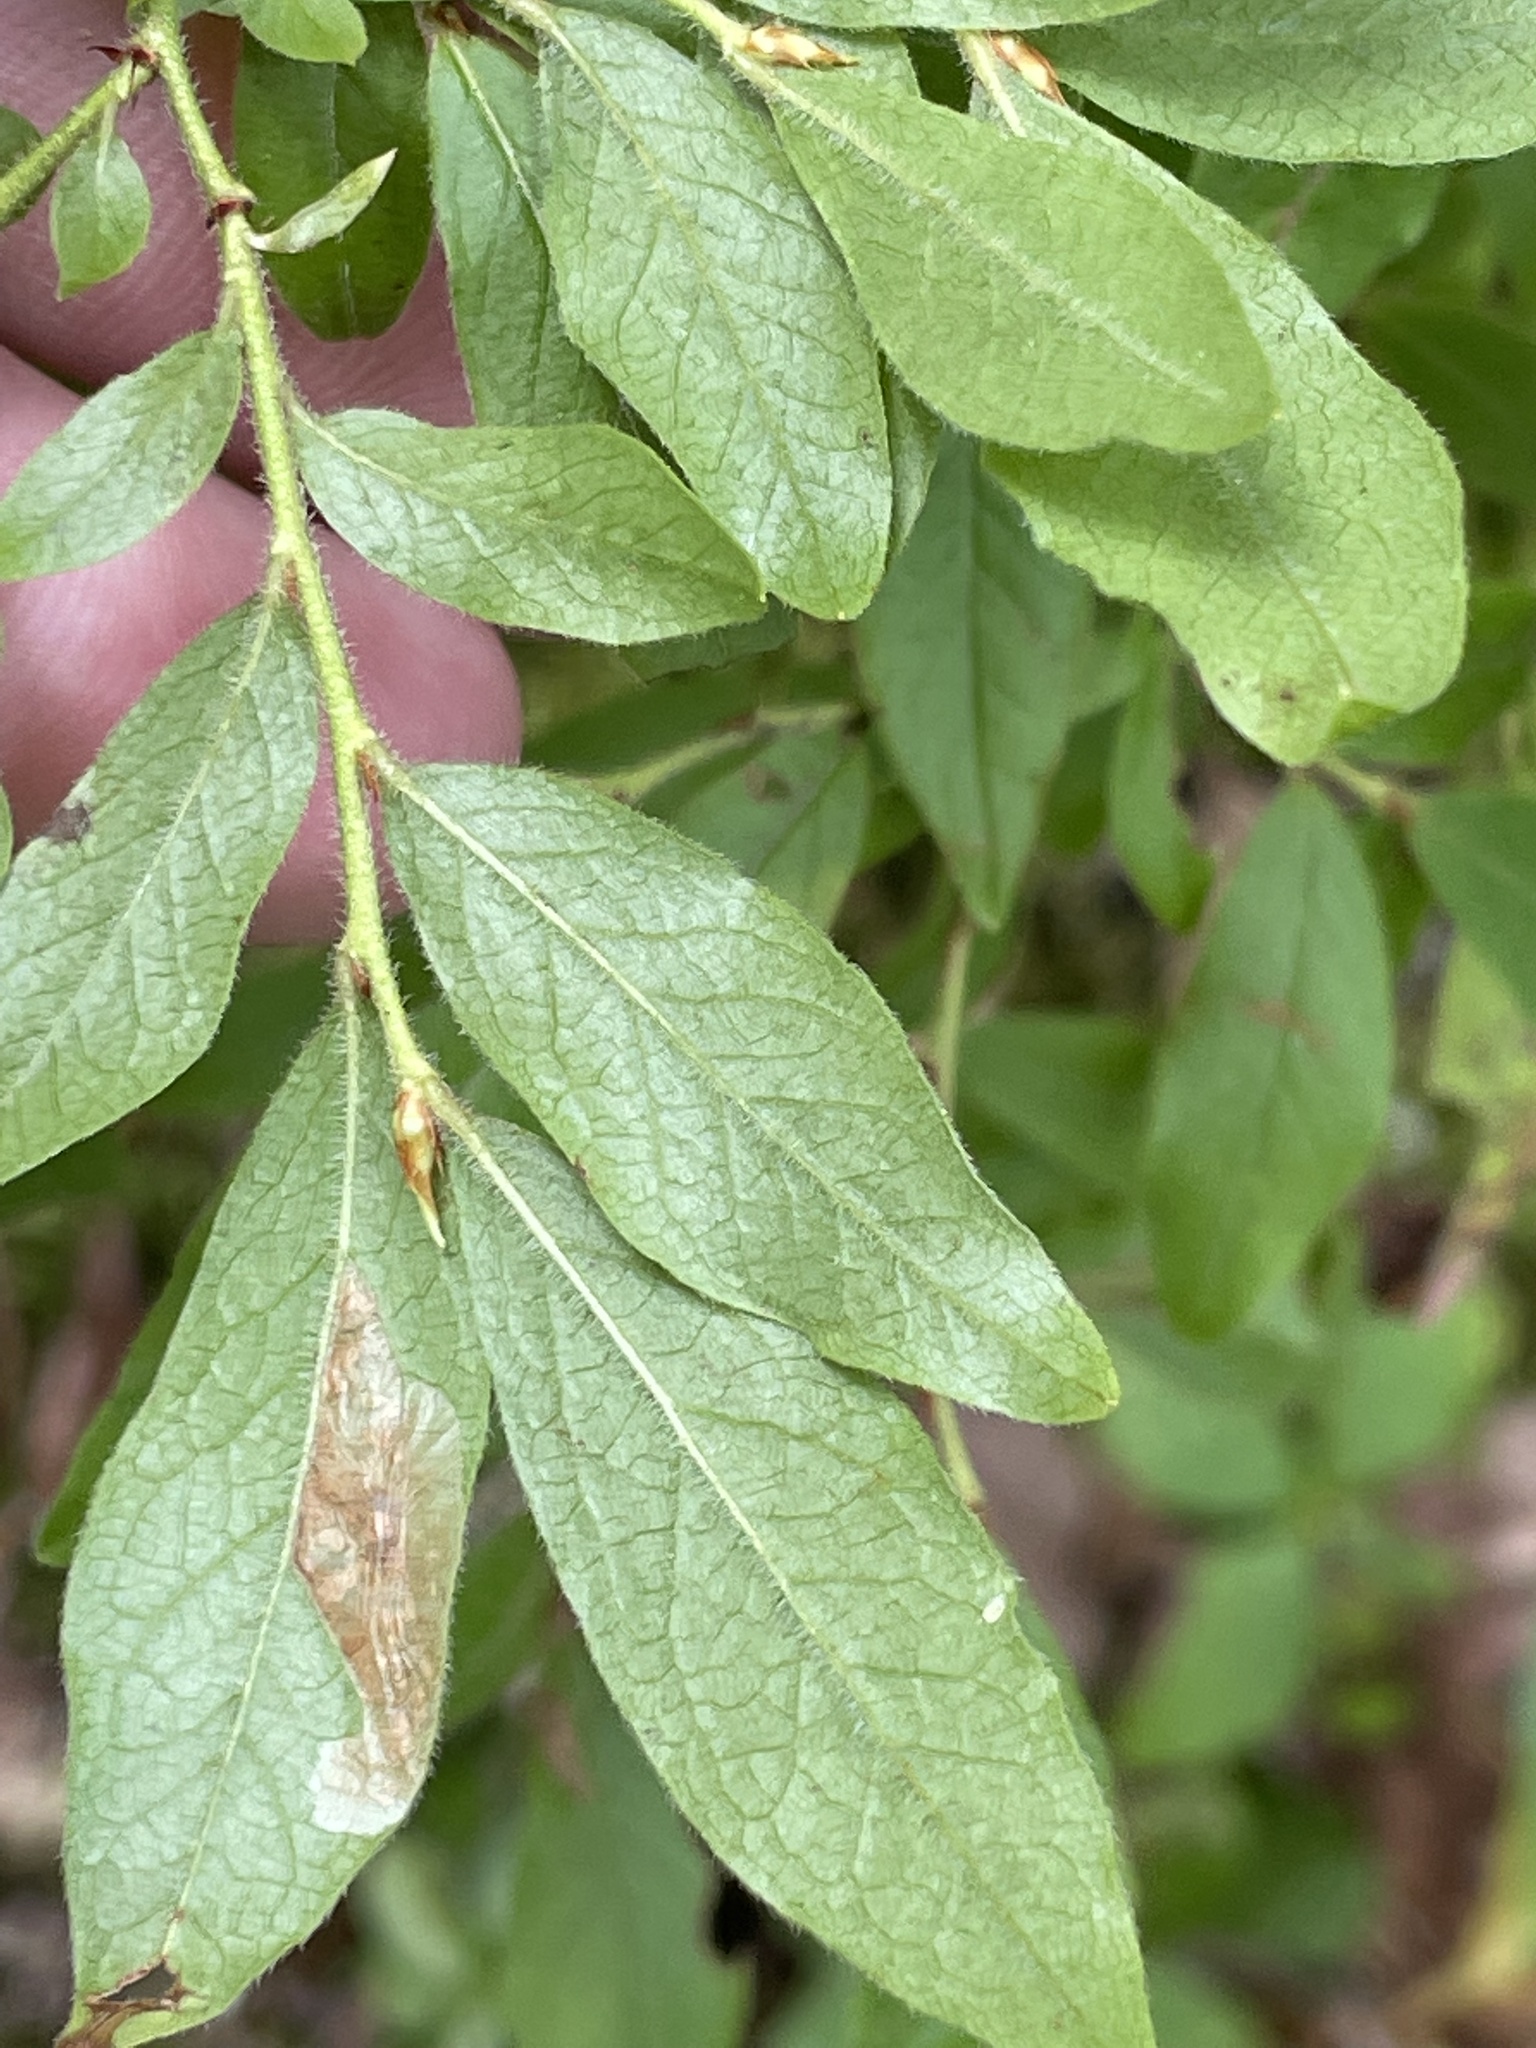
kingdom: Plantae
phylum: Tracheophyta
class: Magnoliopsida
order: Ericales
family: Ericaceae
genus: Vaccinium
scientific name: Vaccinium myrtilloides
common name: Canada blueberry
